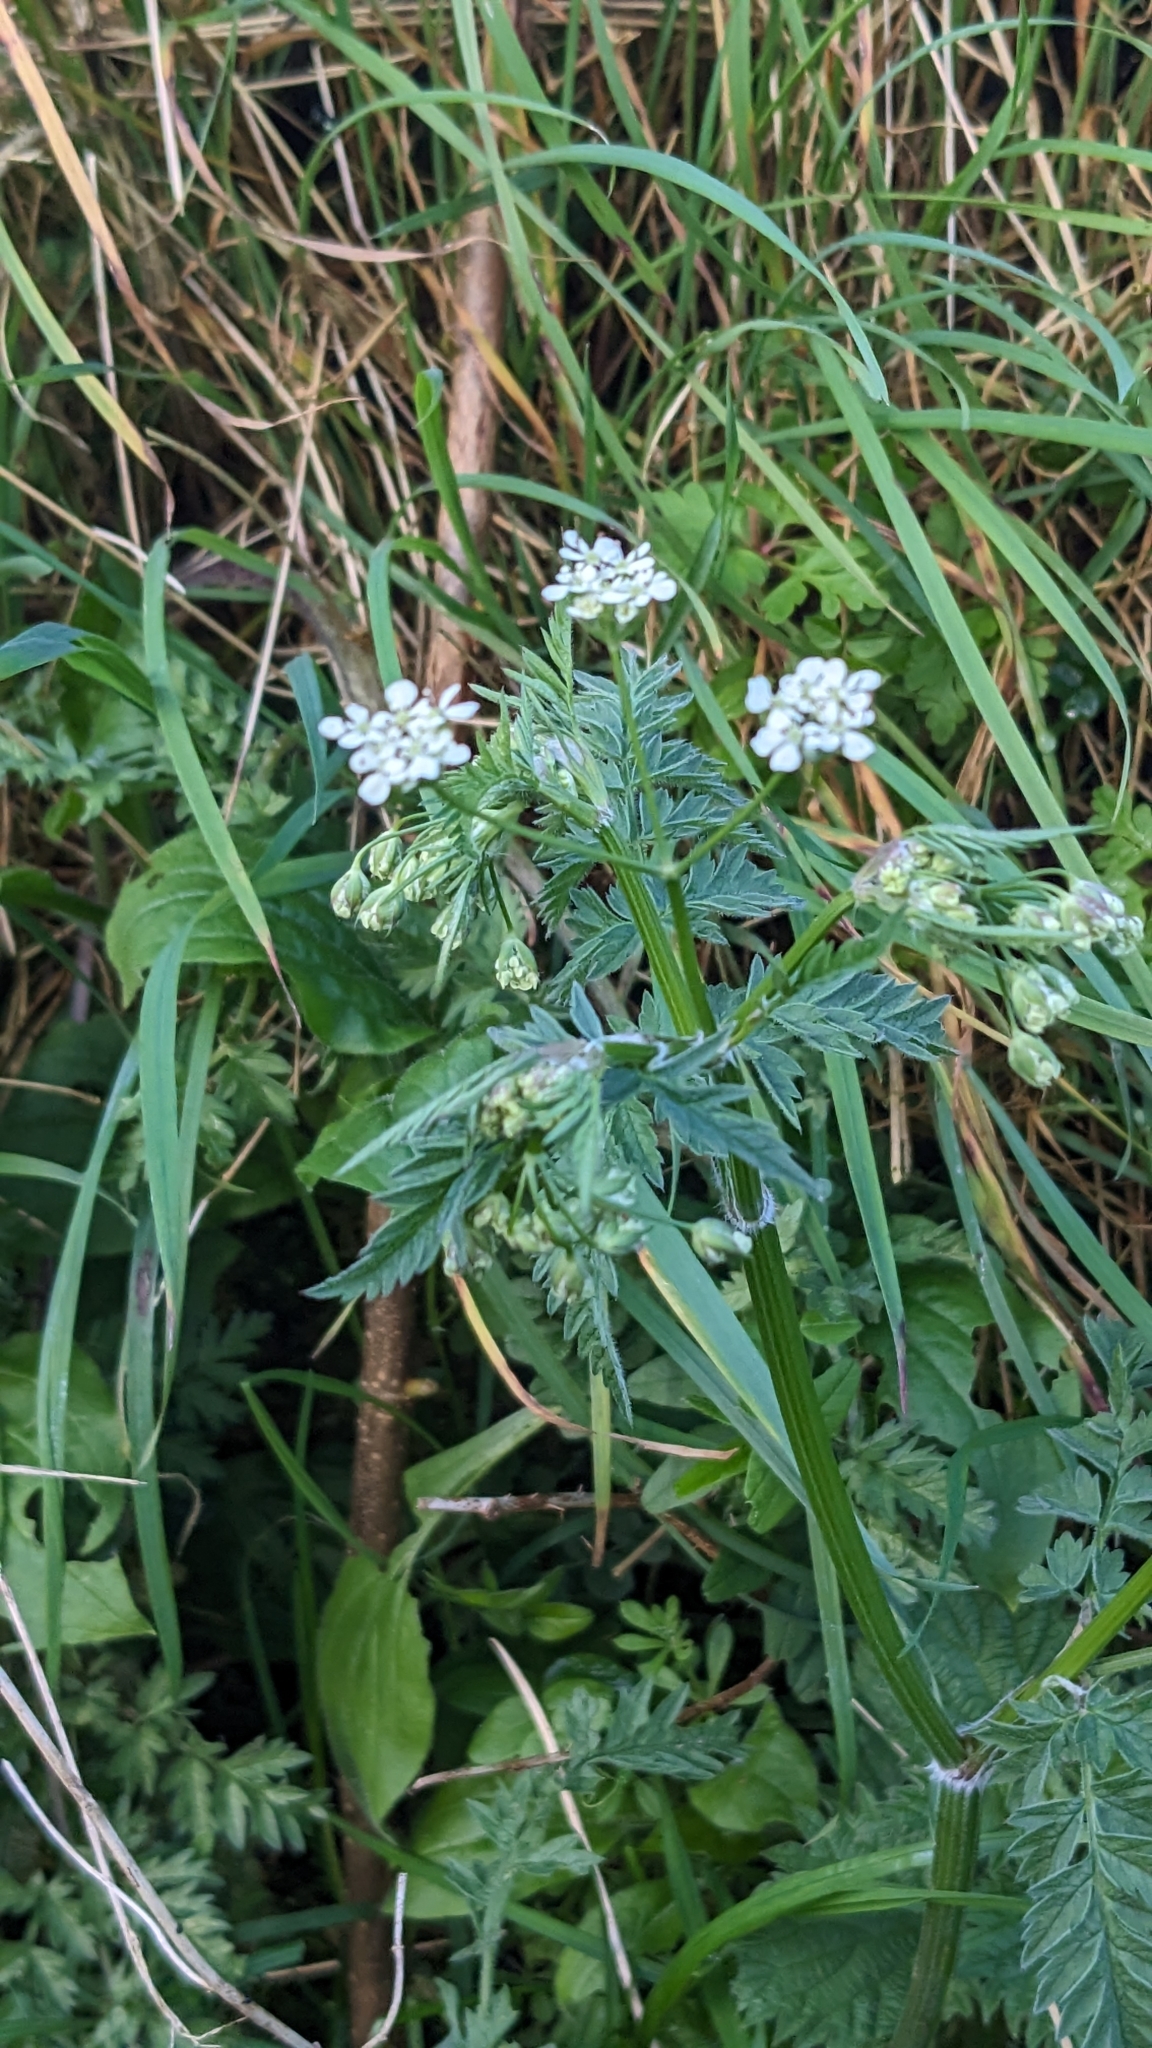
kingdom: Plantae
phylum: Tracheophyta
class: Magnoliopsida
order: Apiales
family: Apiaceae
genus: Anthriscus
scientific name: Anthriscus sylvestris
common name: Cow parsley
